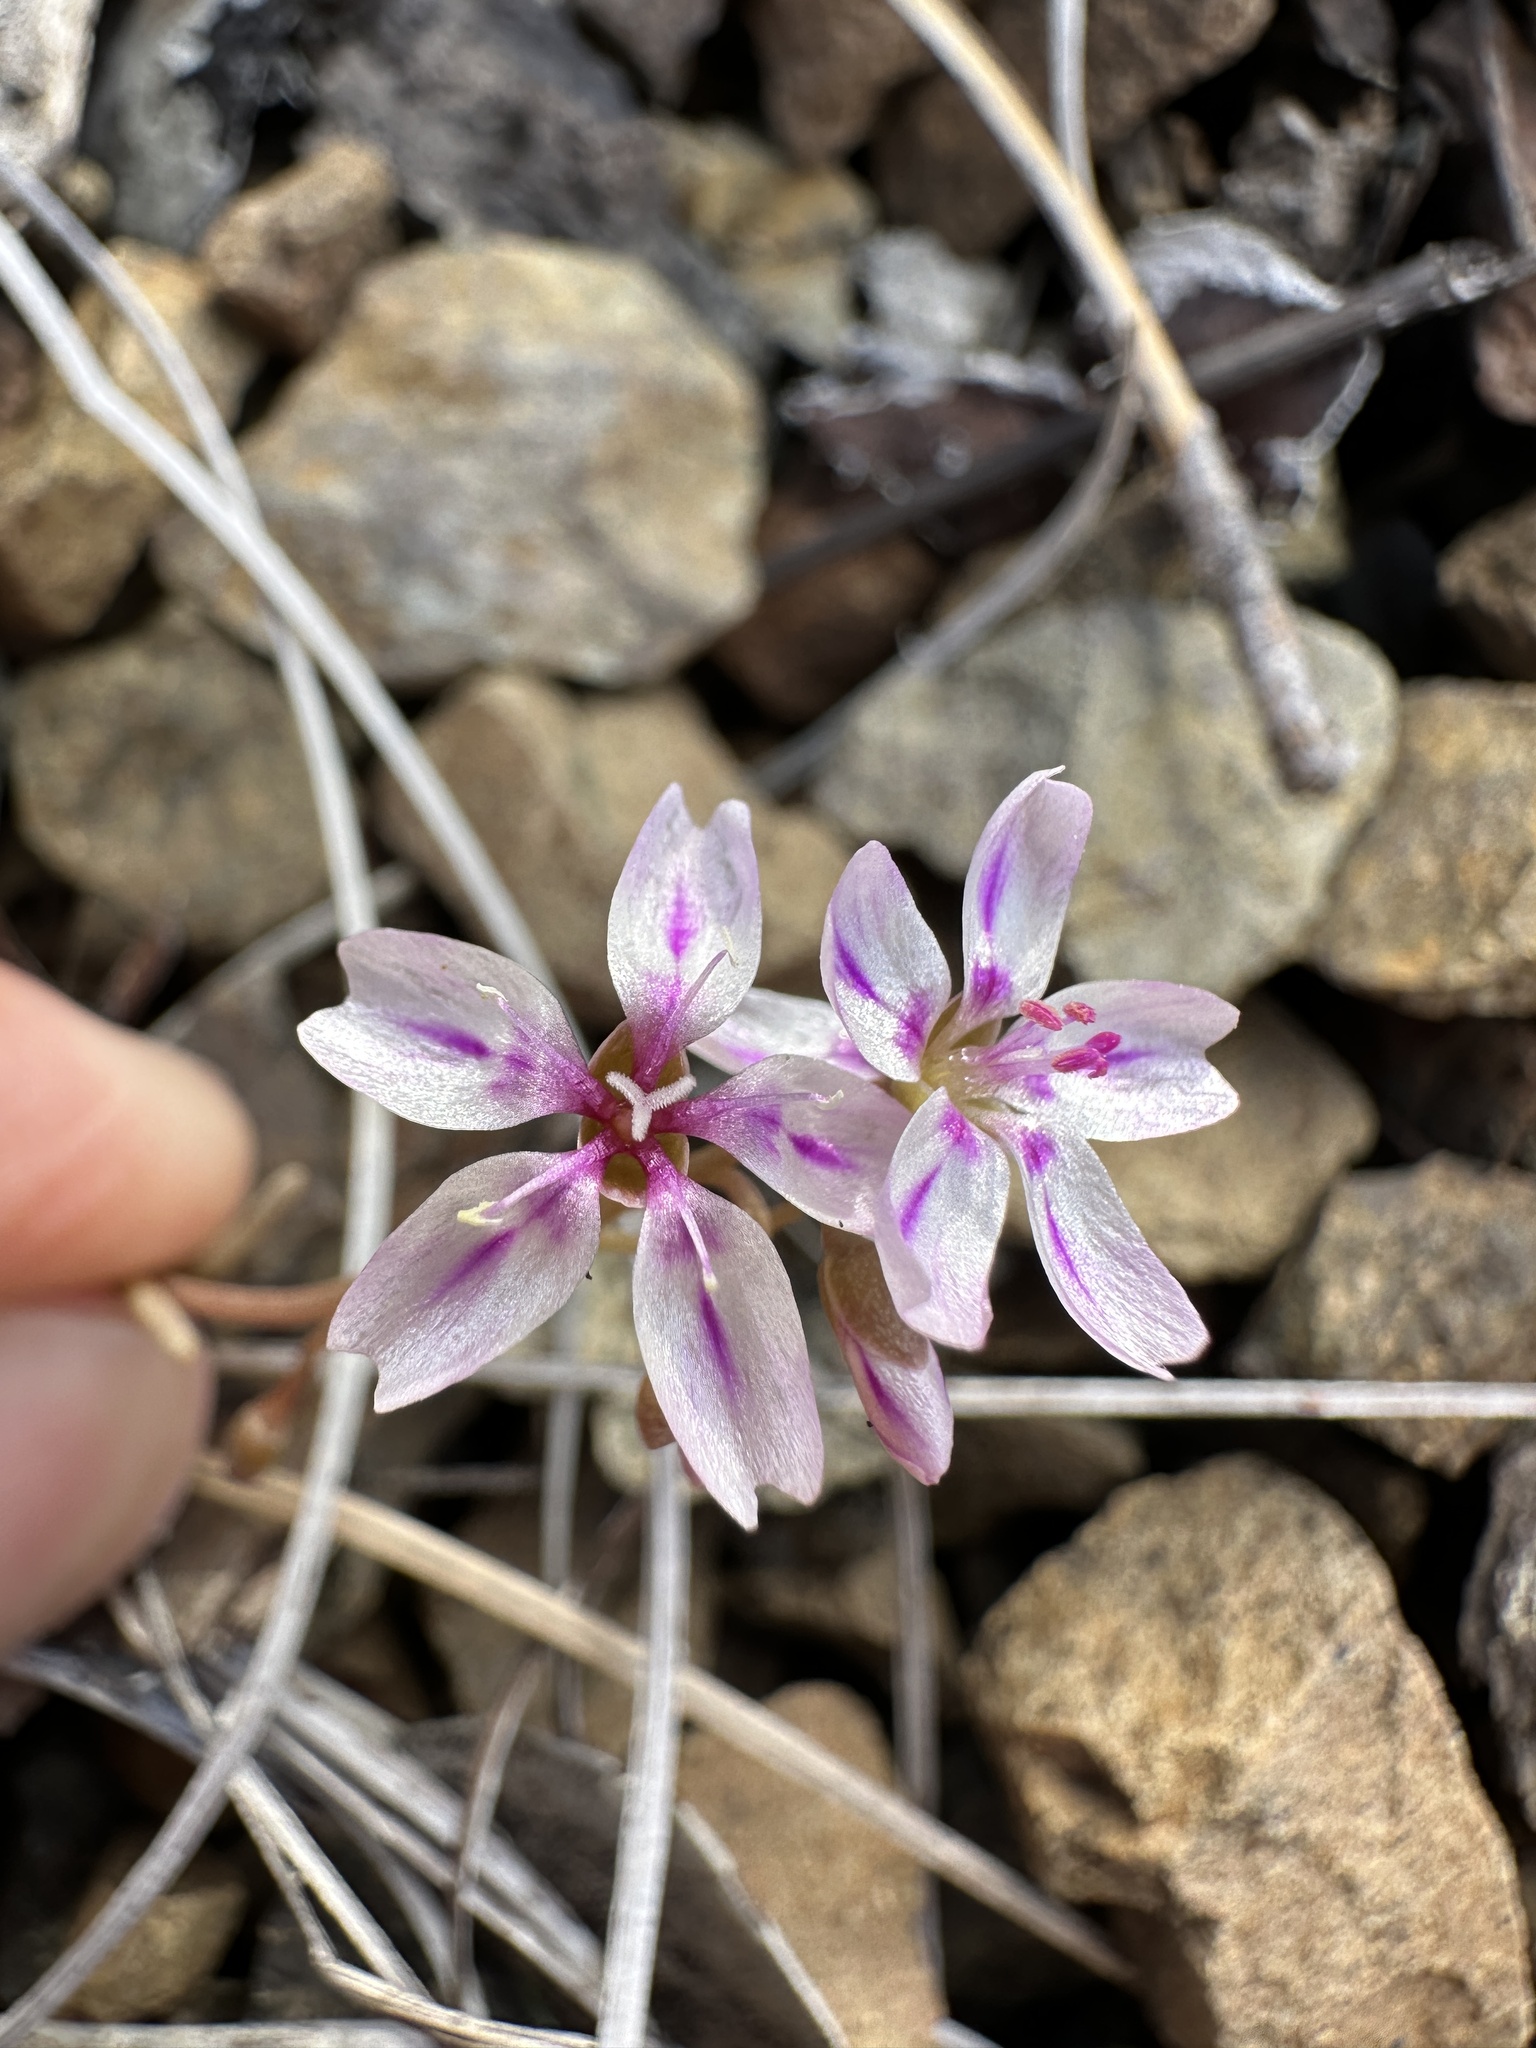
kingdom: Plantae
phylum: Tracheophyta
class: Magnoliopsida
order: Caryophyllales
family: Montiaceae
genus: Claytonia
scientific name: Claytonia gypsophiloides
